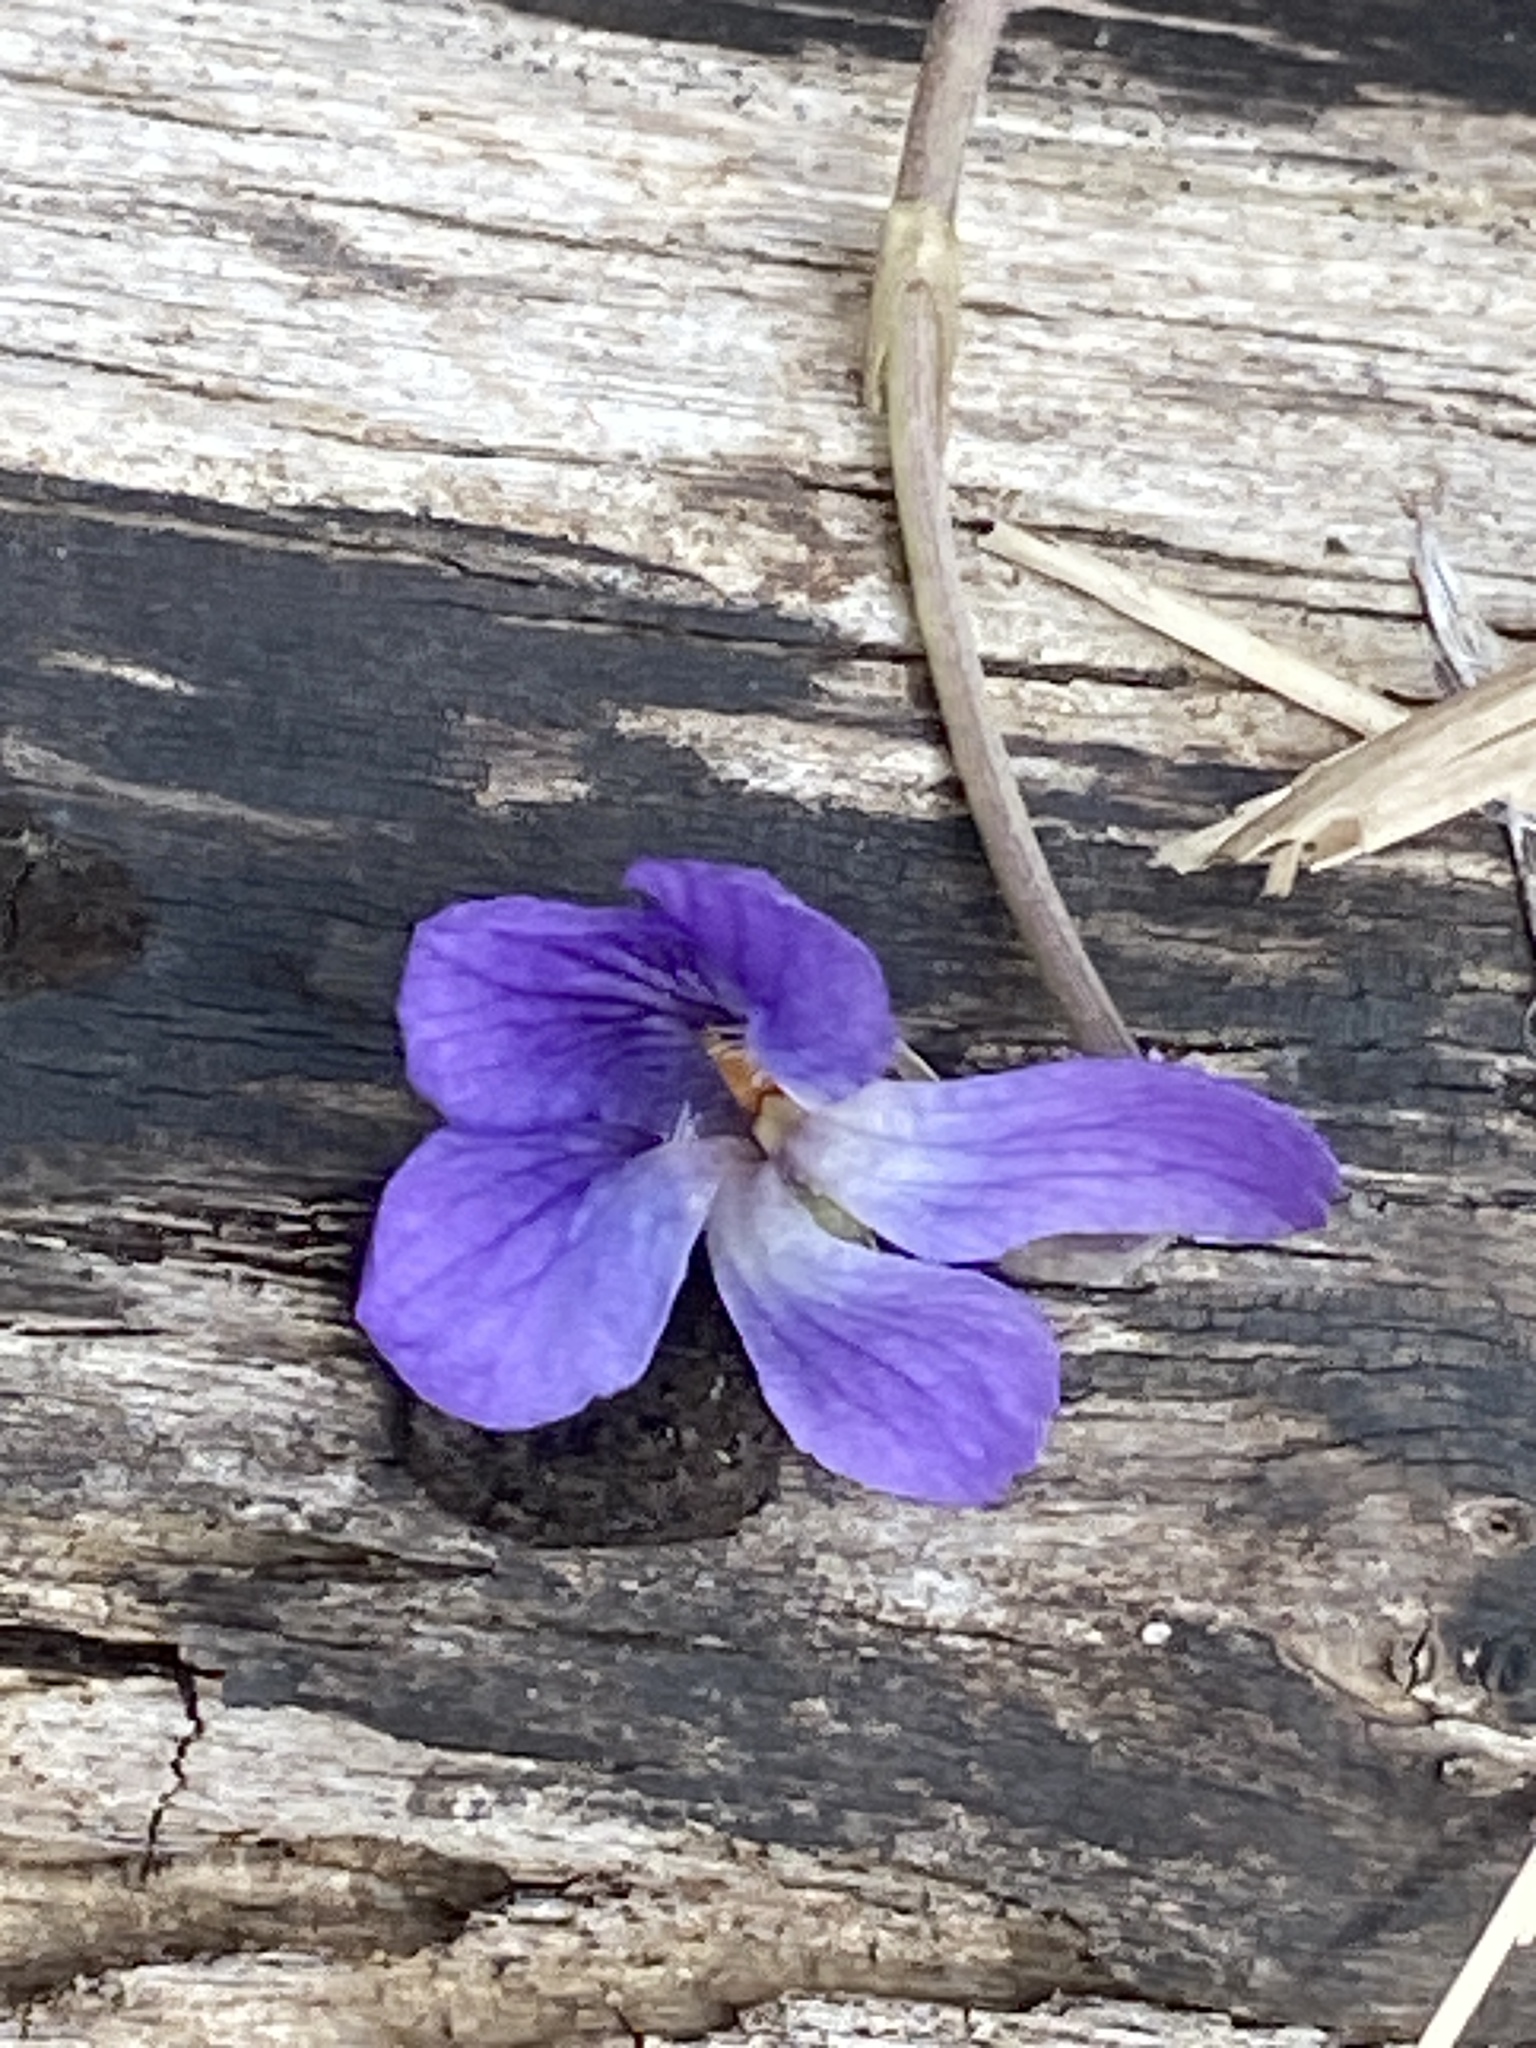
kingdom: Plantae
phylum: Tracheophyta
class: Magnoliopsida
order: Malpighiales
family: Violaceae
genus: Viola
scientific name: Viola odorata
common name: Sweet violet
